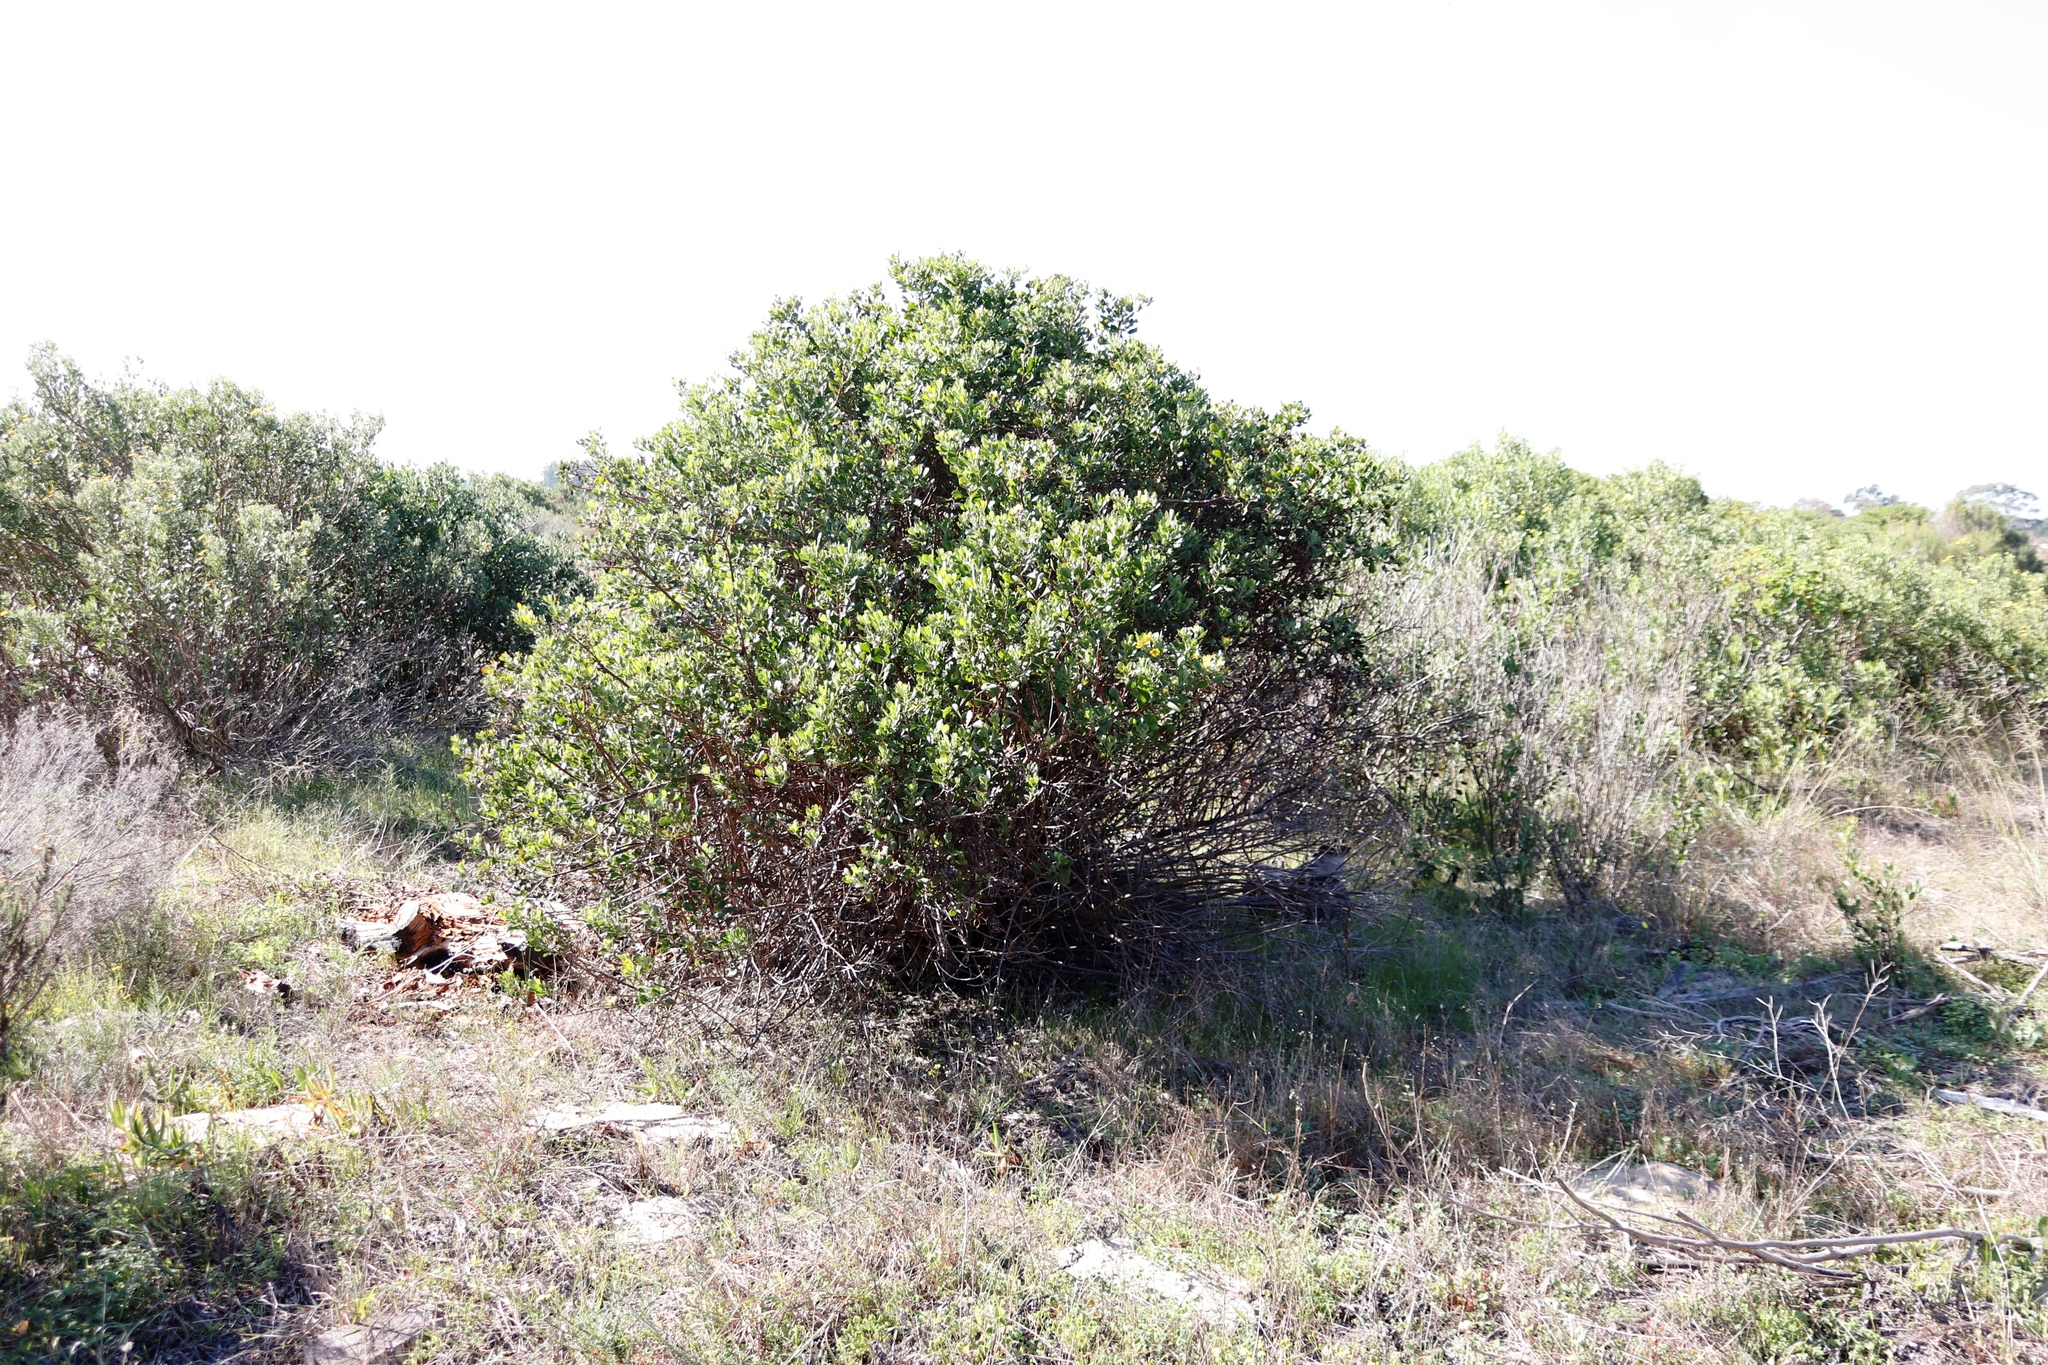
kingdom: Plantae
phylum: Tracheophyta
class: Magnoliopsida
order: Asterales
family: Asteraceae
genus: Osteospermum
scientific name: Osteospermum moniliferum
